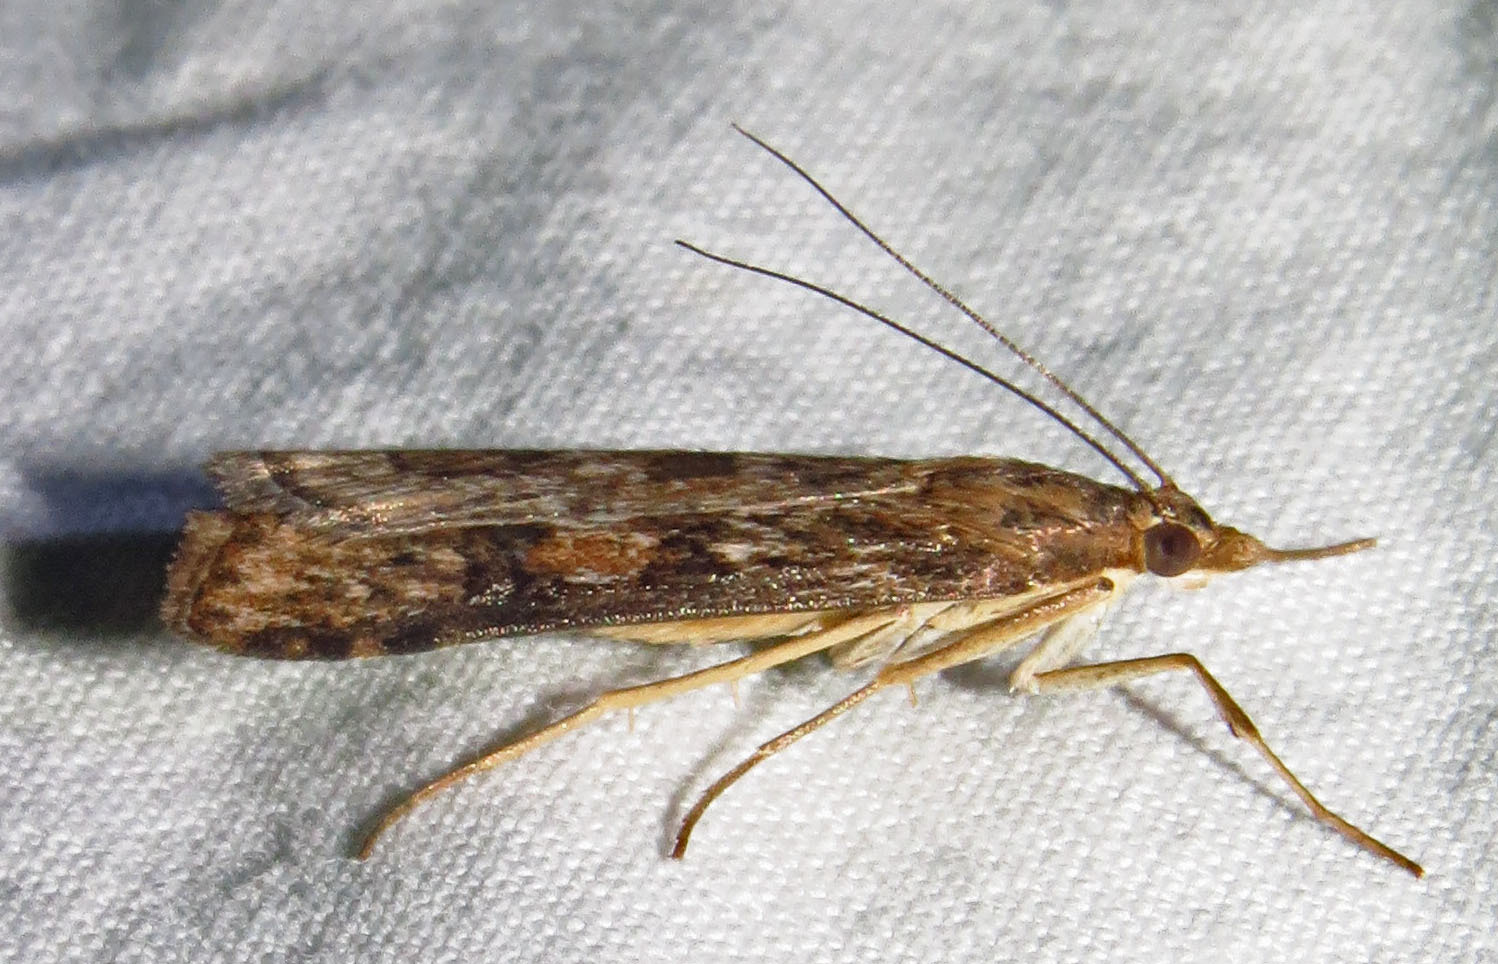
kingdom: Animalia
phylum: Arthropoda
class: Insecta
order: Lepidoptera
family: Crambidae
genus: Nomophila
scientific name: Nomophila nearctica
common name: American rush veneer
